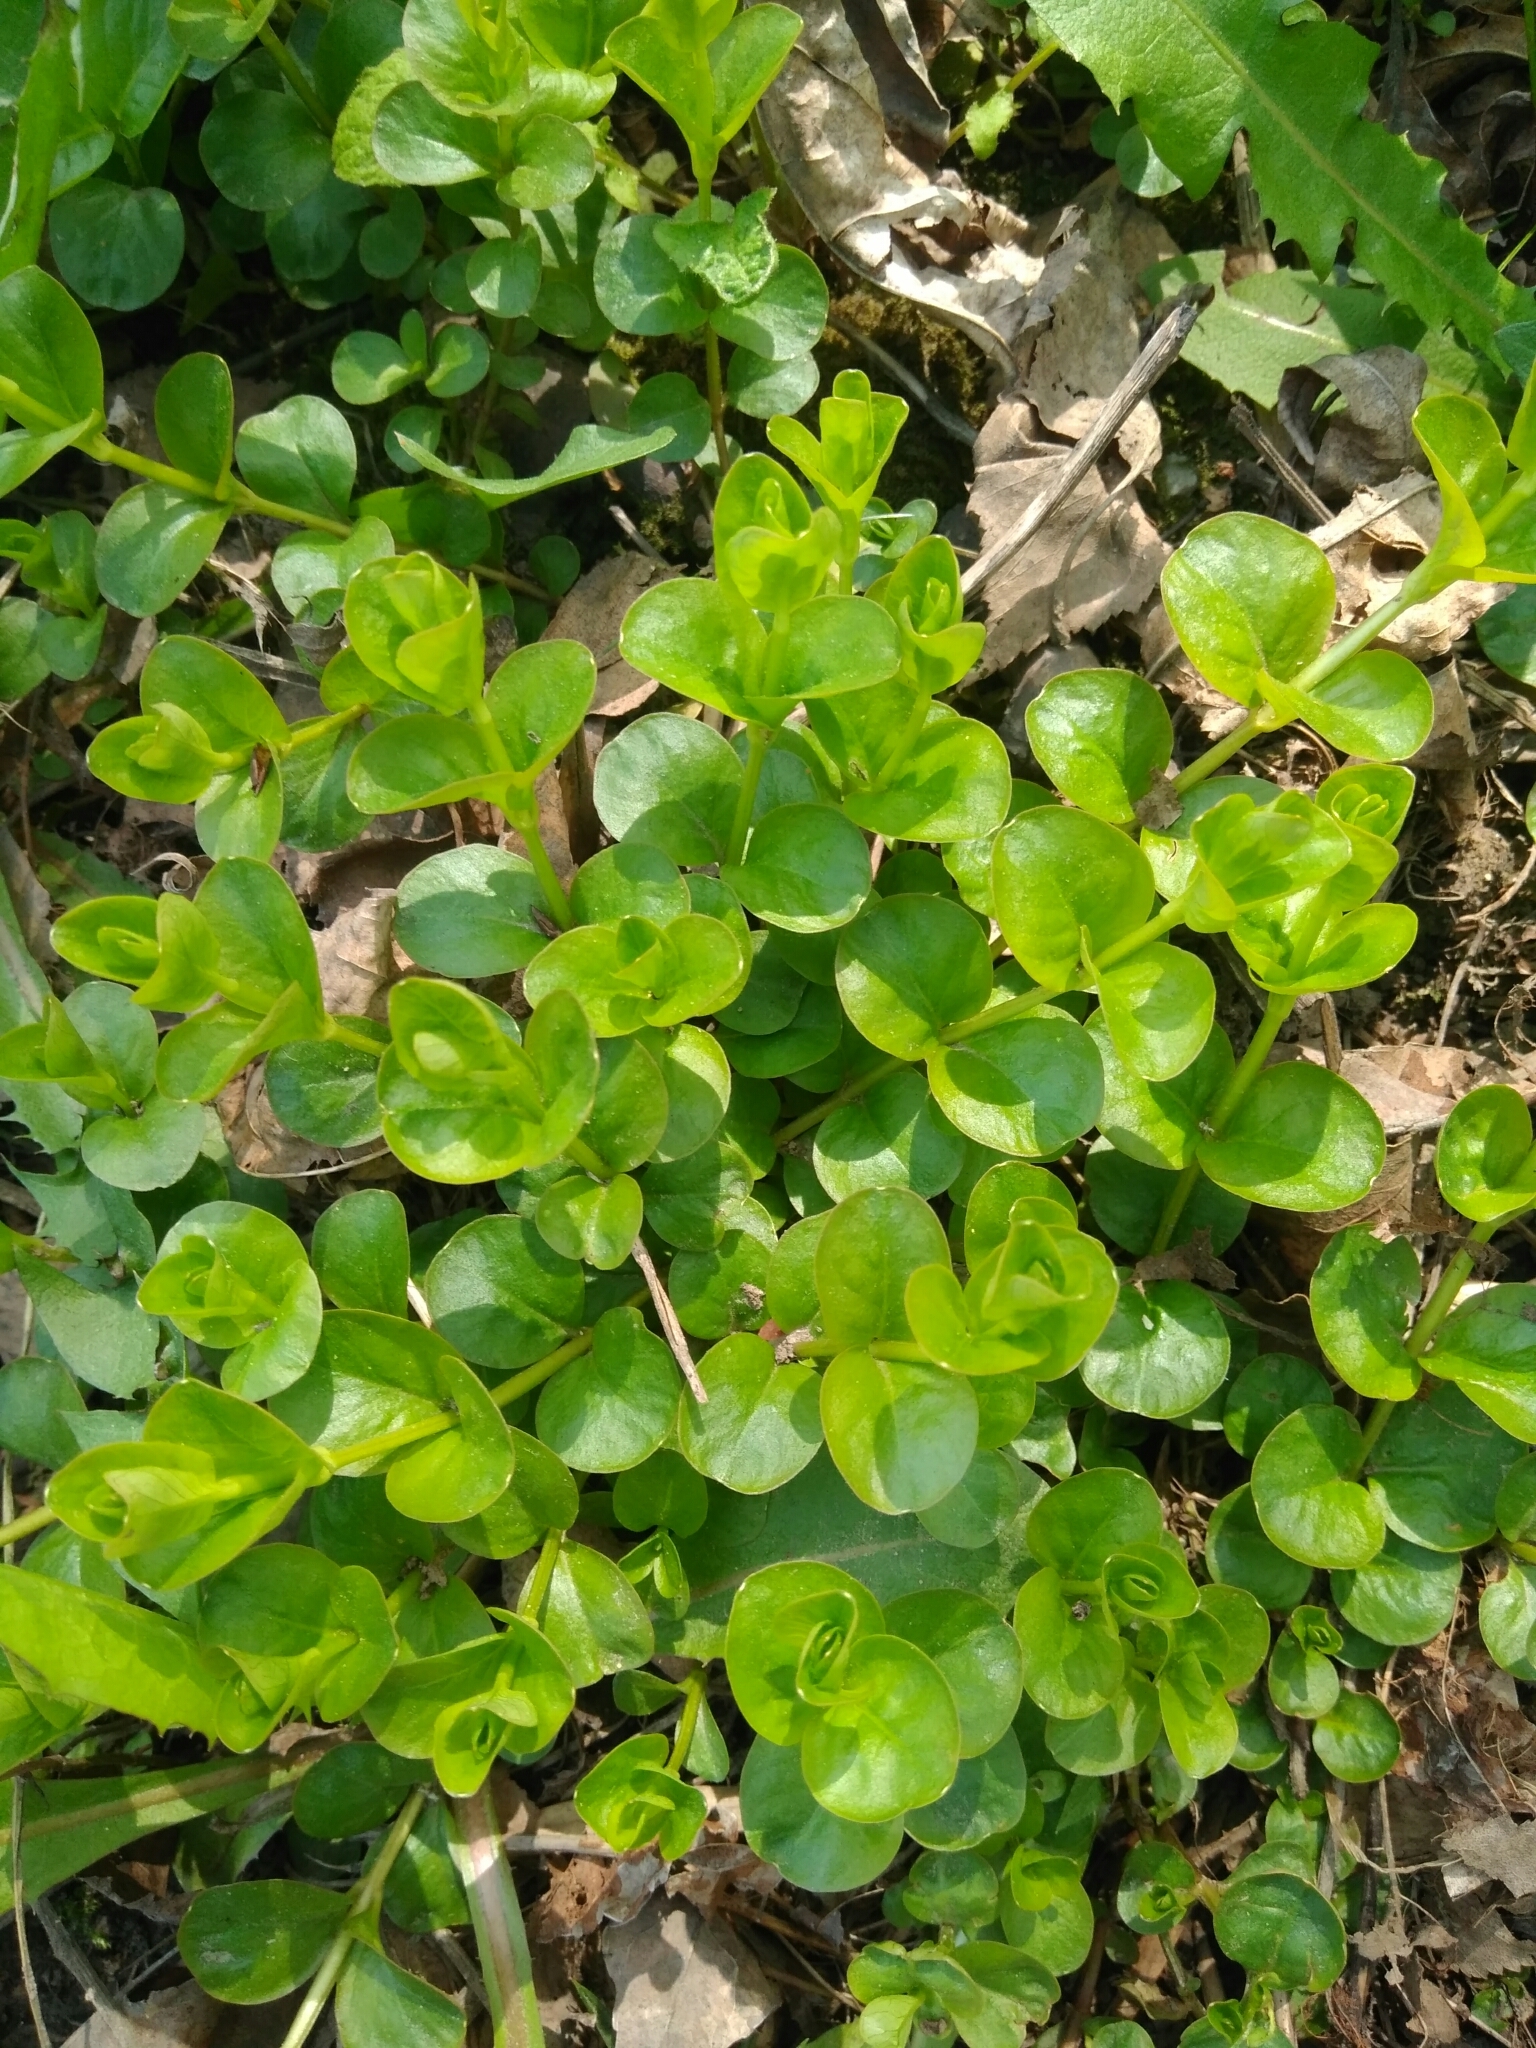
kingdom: Plantae
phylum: Tracheophyta
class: Magnoliopsida
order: Ericales
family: Primulaceae
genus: Lysimachia
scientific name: Lysimachia nummularia
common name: Moneywort
